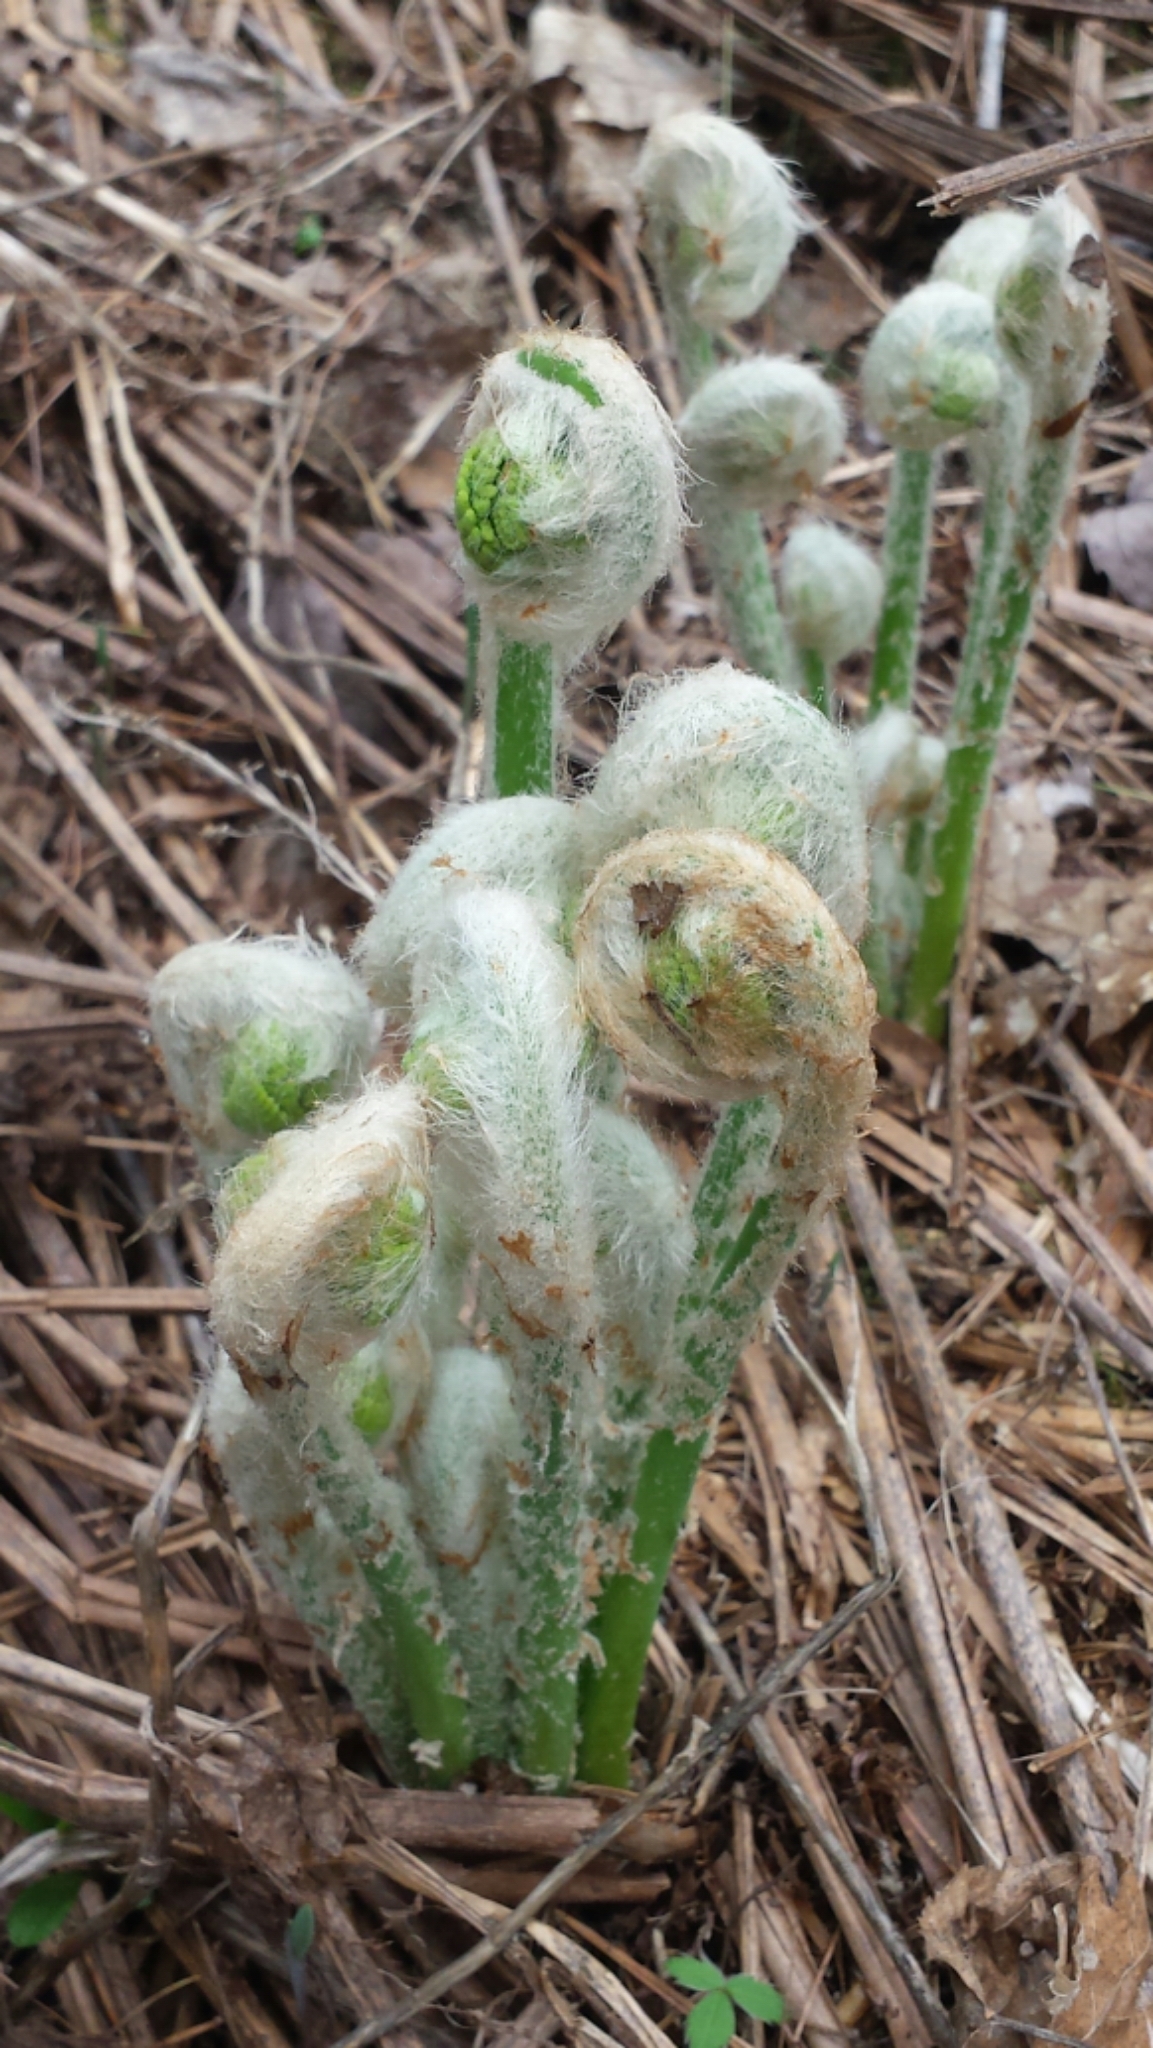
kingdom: Plantae
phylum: Tracheophyta
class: Polypodiopsida
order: Osmundales
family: Osmundaceae
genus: Osmundastrum
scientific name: Osmundastrum cinnamomeum
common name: Cinnamon fern
